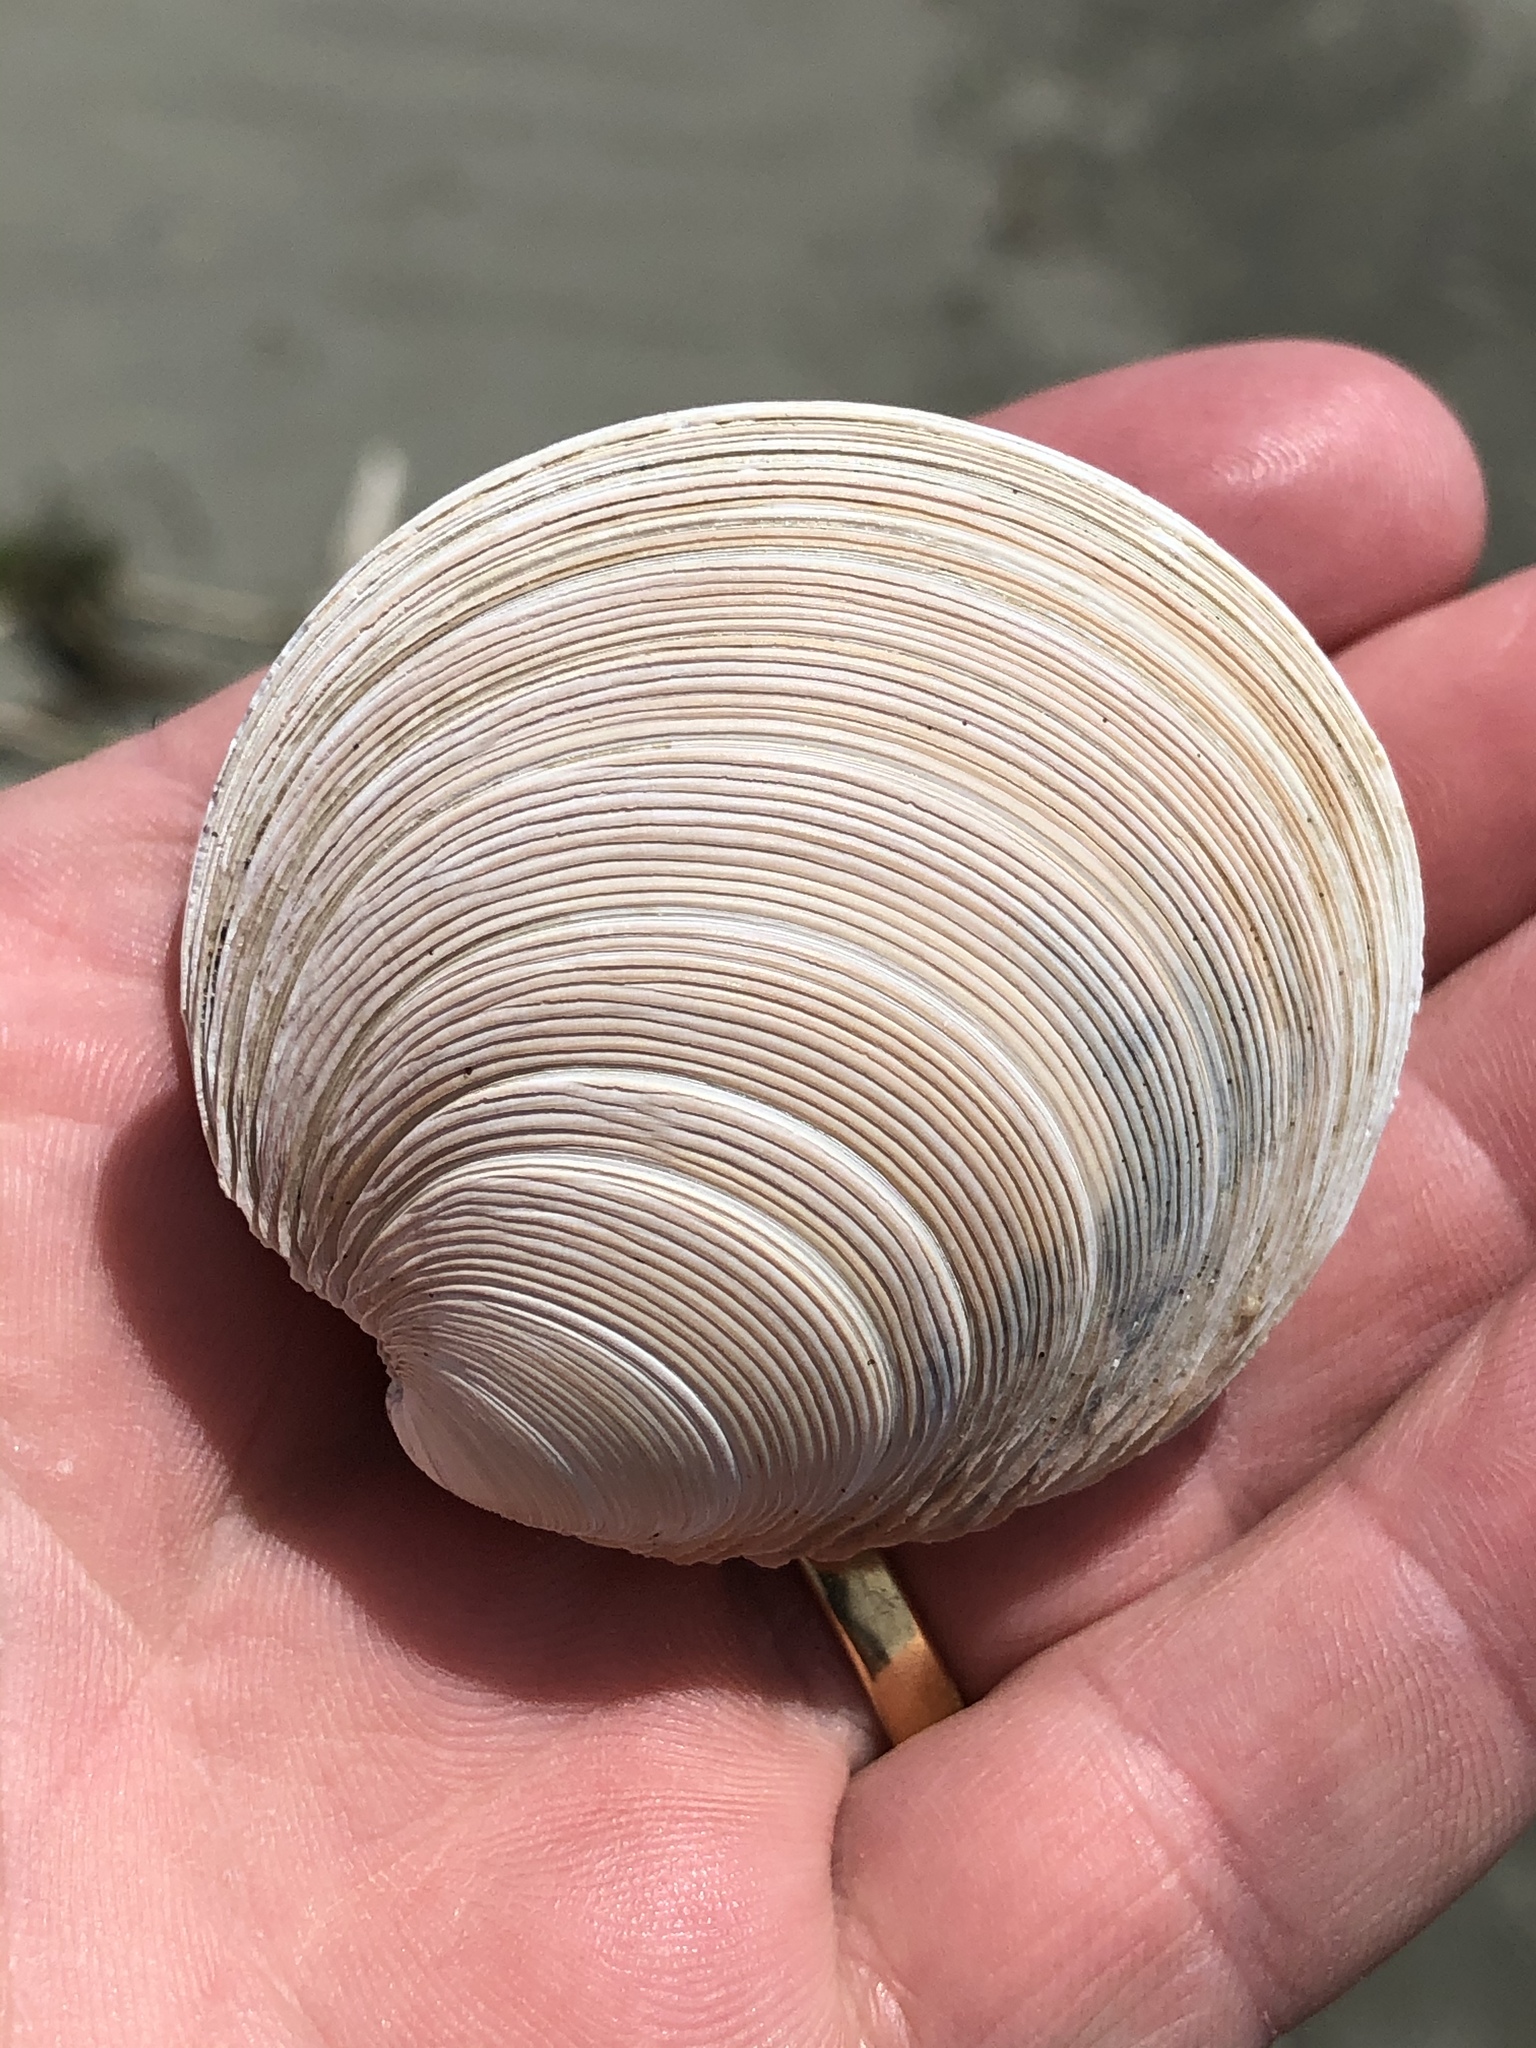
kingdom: Animalia
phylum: Mollusca
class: Bivalvia
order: Venerida
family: Veneridae
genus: Dosinia
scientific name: Dosinia anus
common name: Old-woman dosinia
